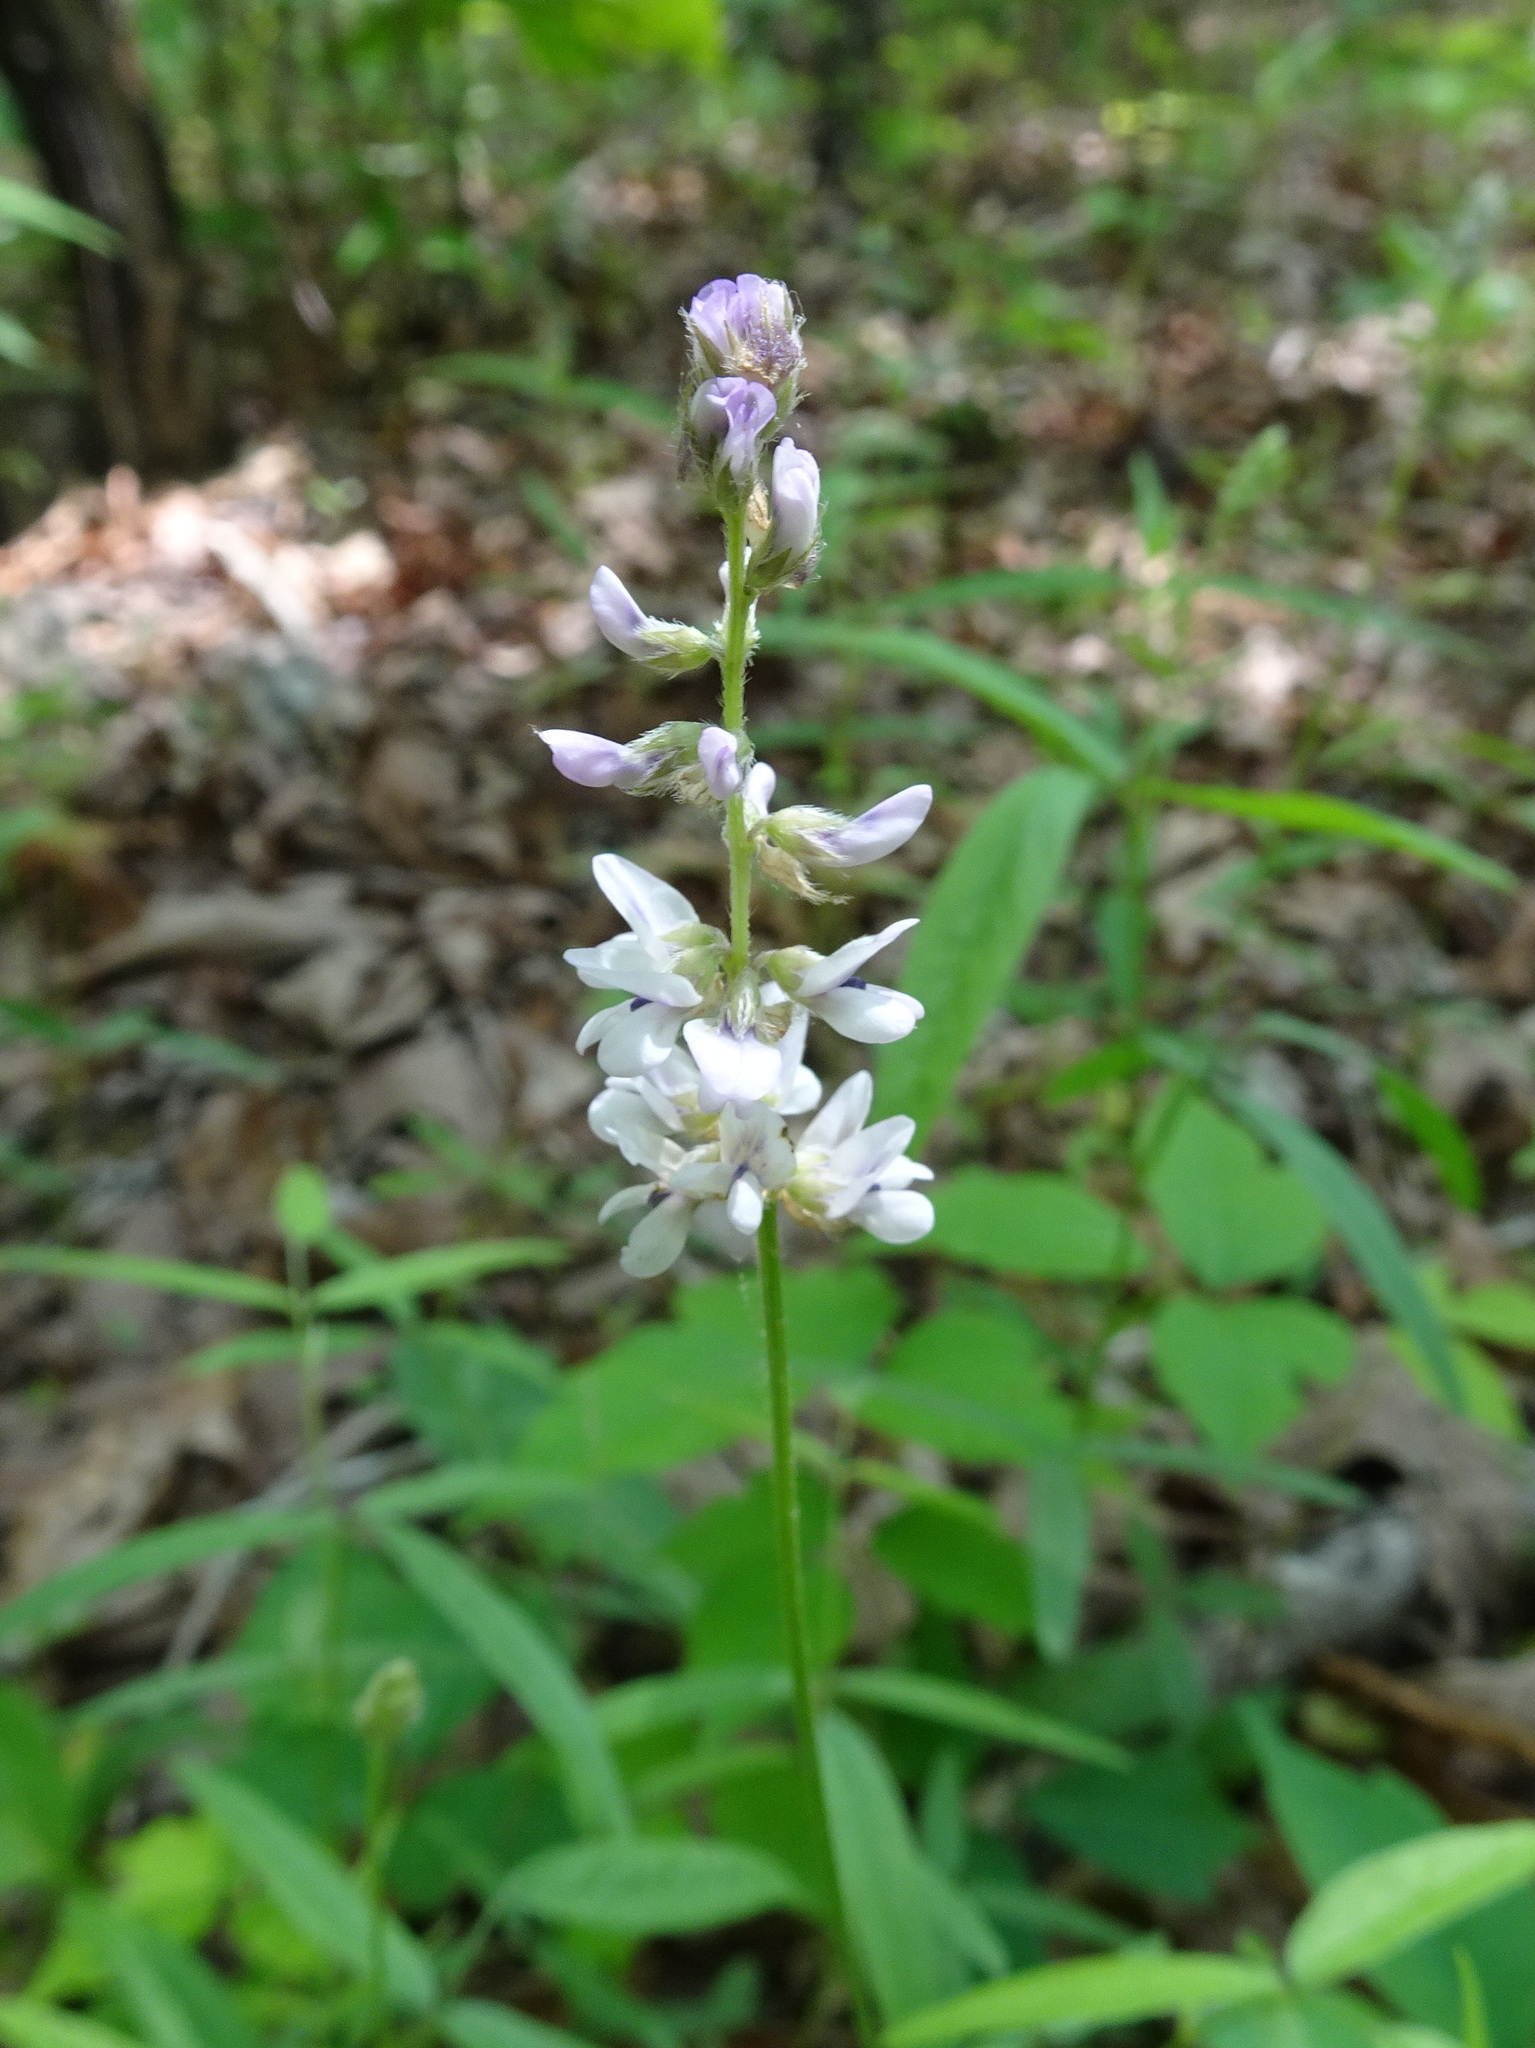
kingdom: Plantae
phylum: Tracheophyta
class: Magnoliopsida
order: Fabales
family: Fabaceae
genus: Orbexilum
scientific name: Orbexilum pedunculatum
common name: Sampson's snakeroot
